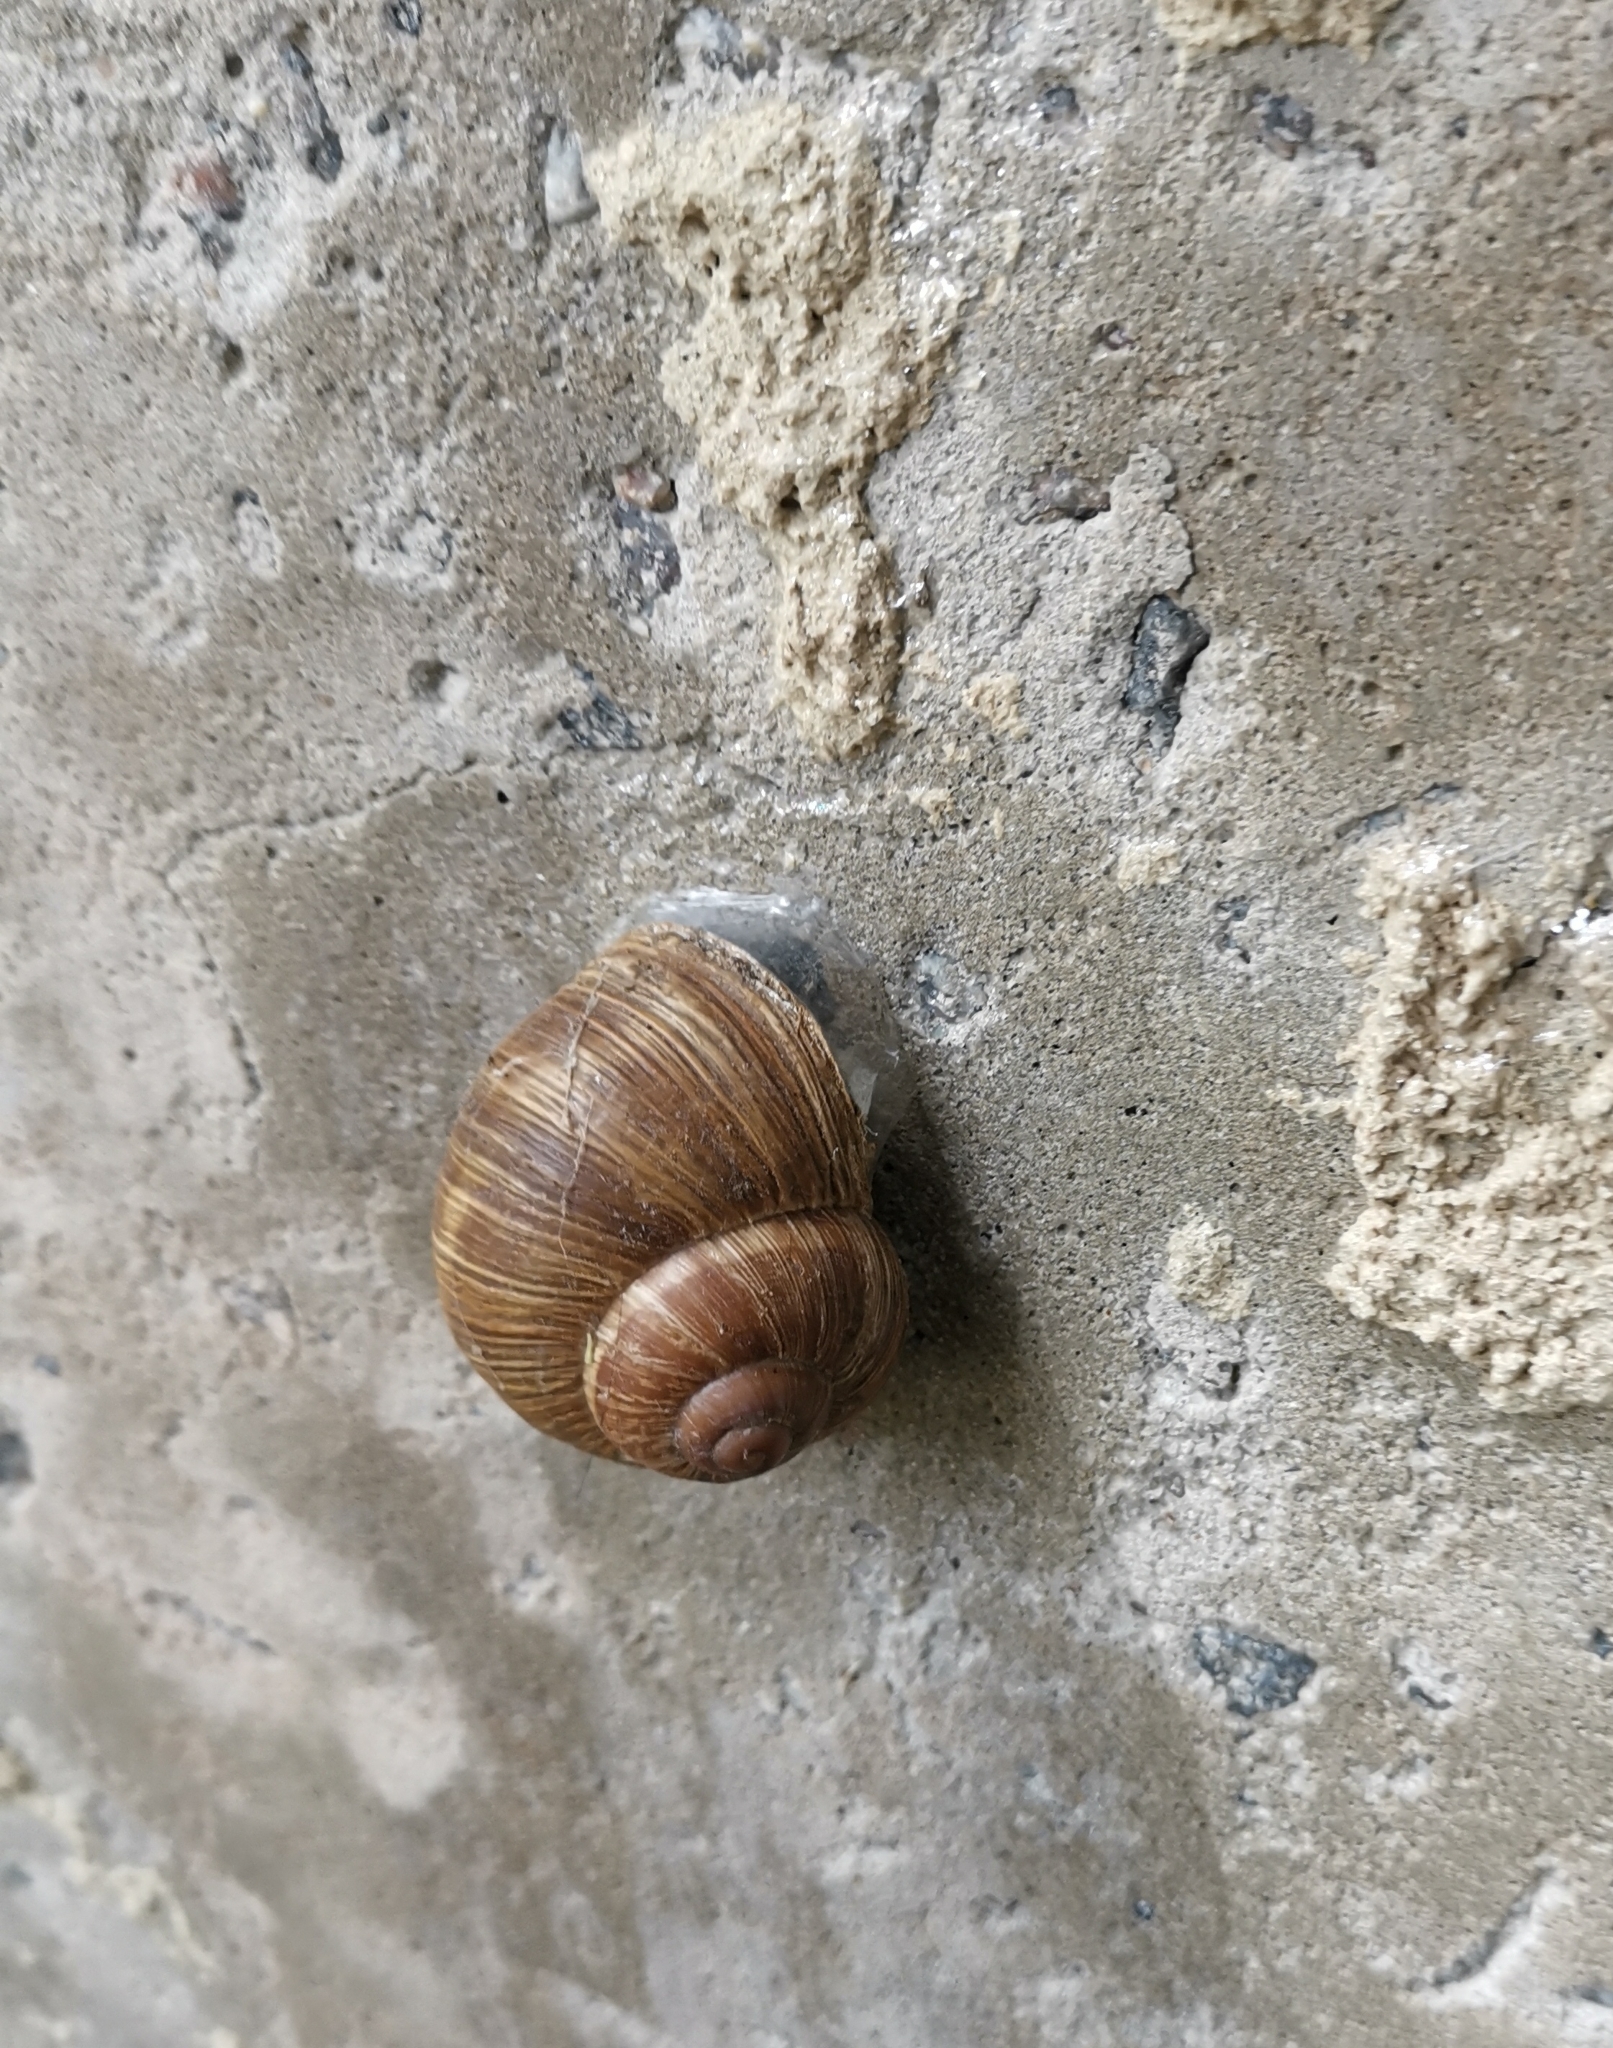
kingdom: Animalia
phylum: Mollusca
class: Gastropoda
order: Stylommatophora
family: Helicidae
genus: Helix
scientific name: Helix pomatia
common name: Roman snail
